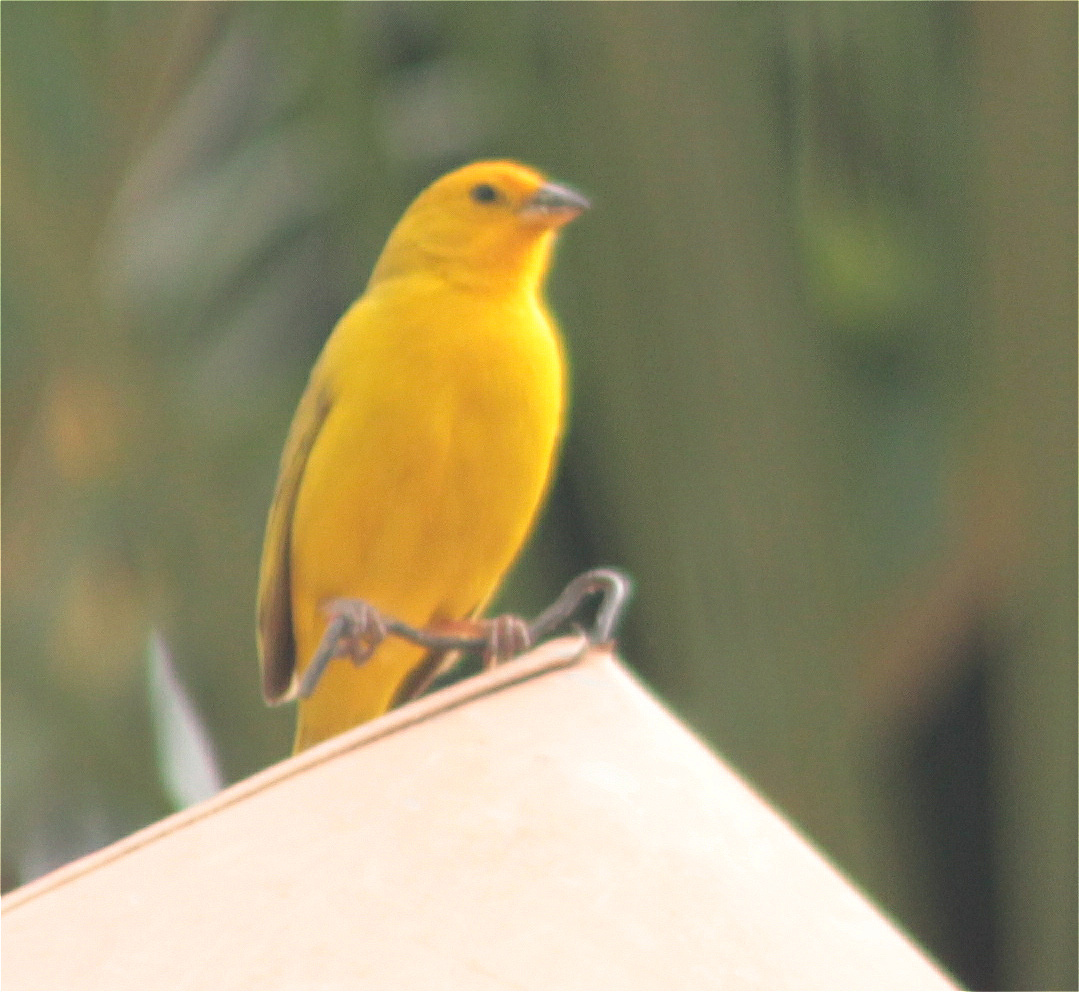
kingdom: Animalia
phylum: Chordata
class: Aves
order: Passeriformes
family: Thraupidae
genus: Sicalis
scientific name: Sicalis flaveola
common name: Saffron finch
